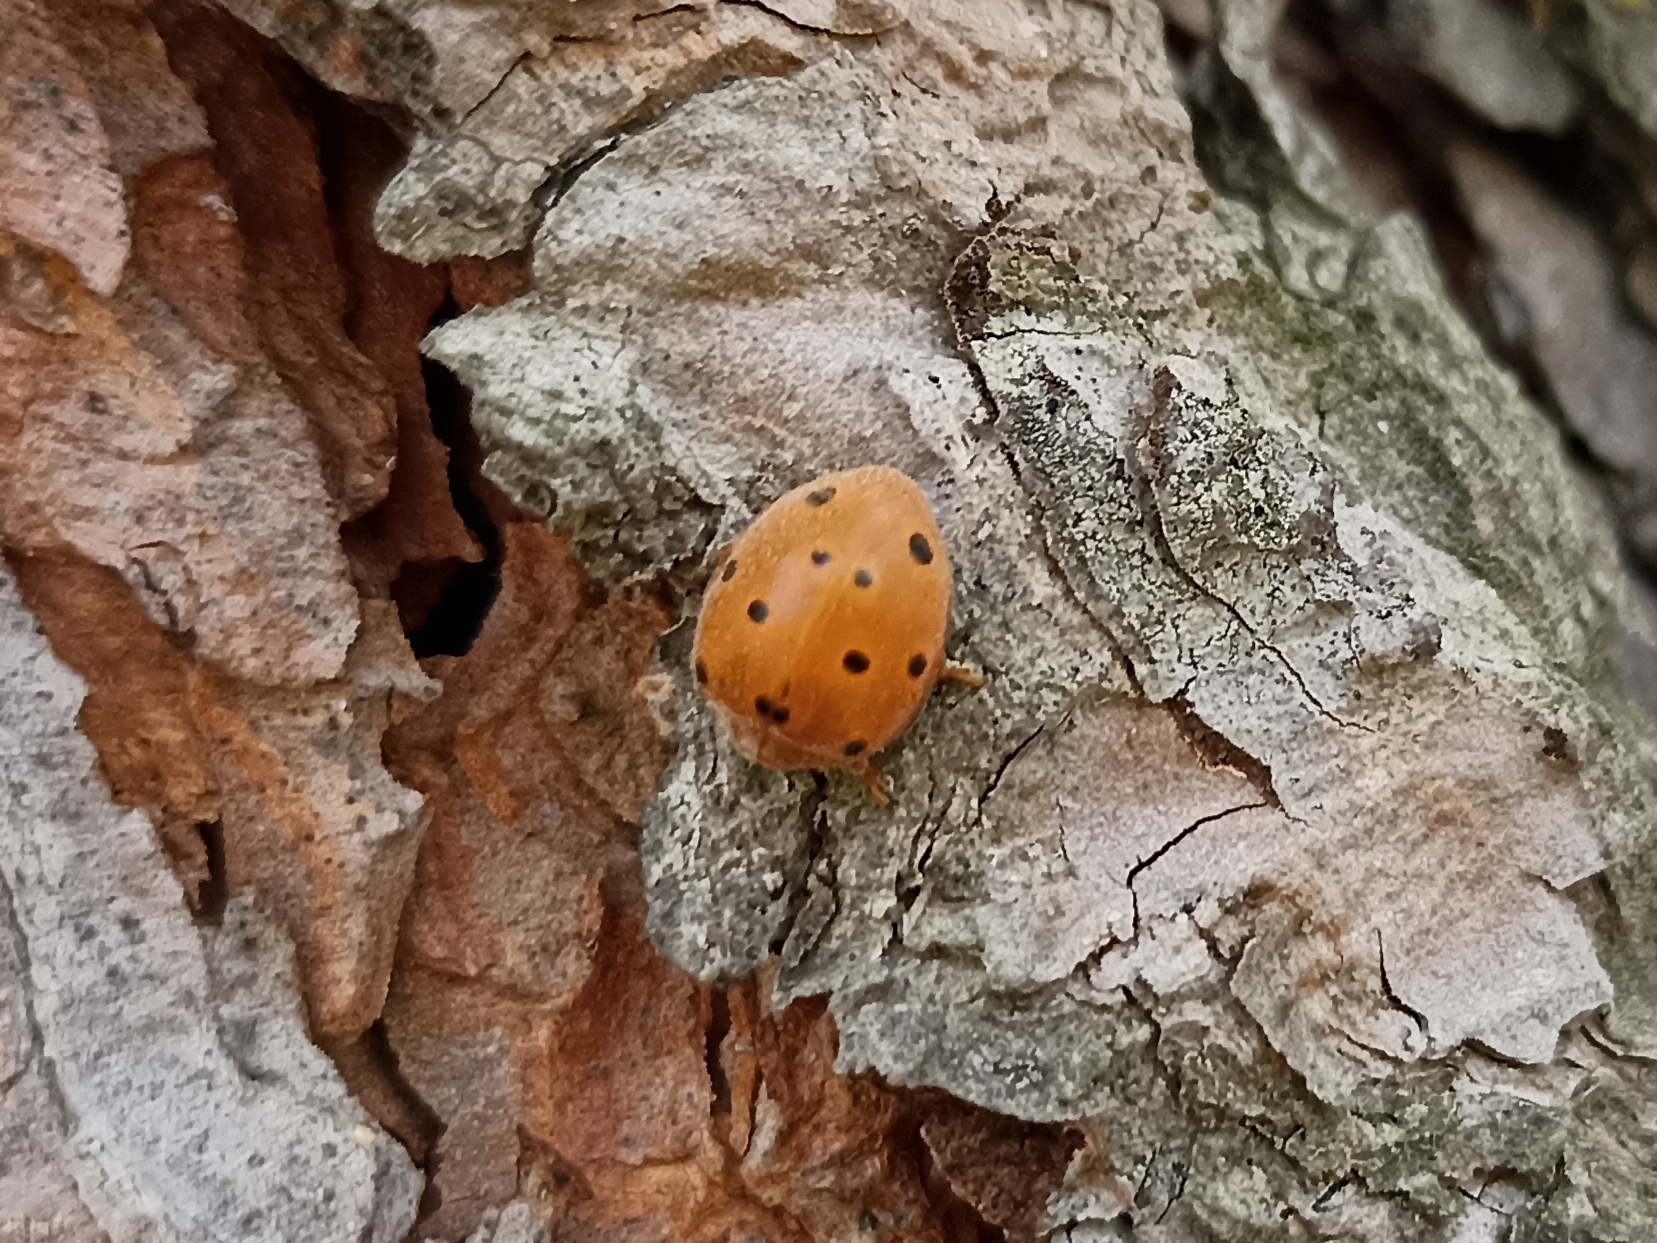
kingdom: Animalia
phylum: Arthropoda
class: Insecta
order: Coleoptera
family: Coccinellidae
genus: Henosepilachna
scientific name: Henosepilachna argus
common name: Bryony ladybird
